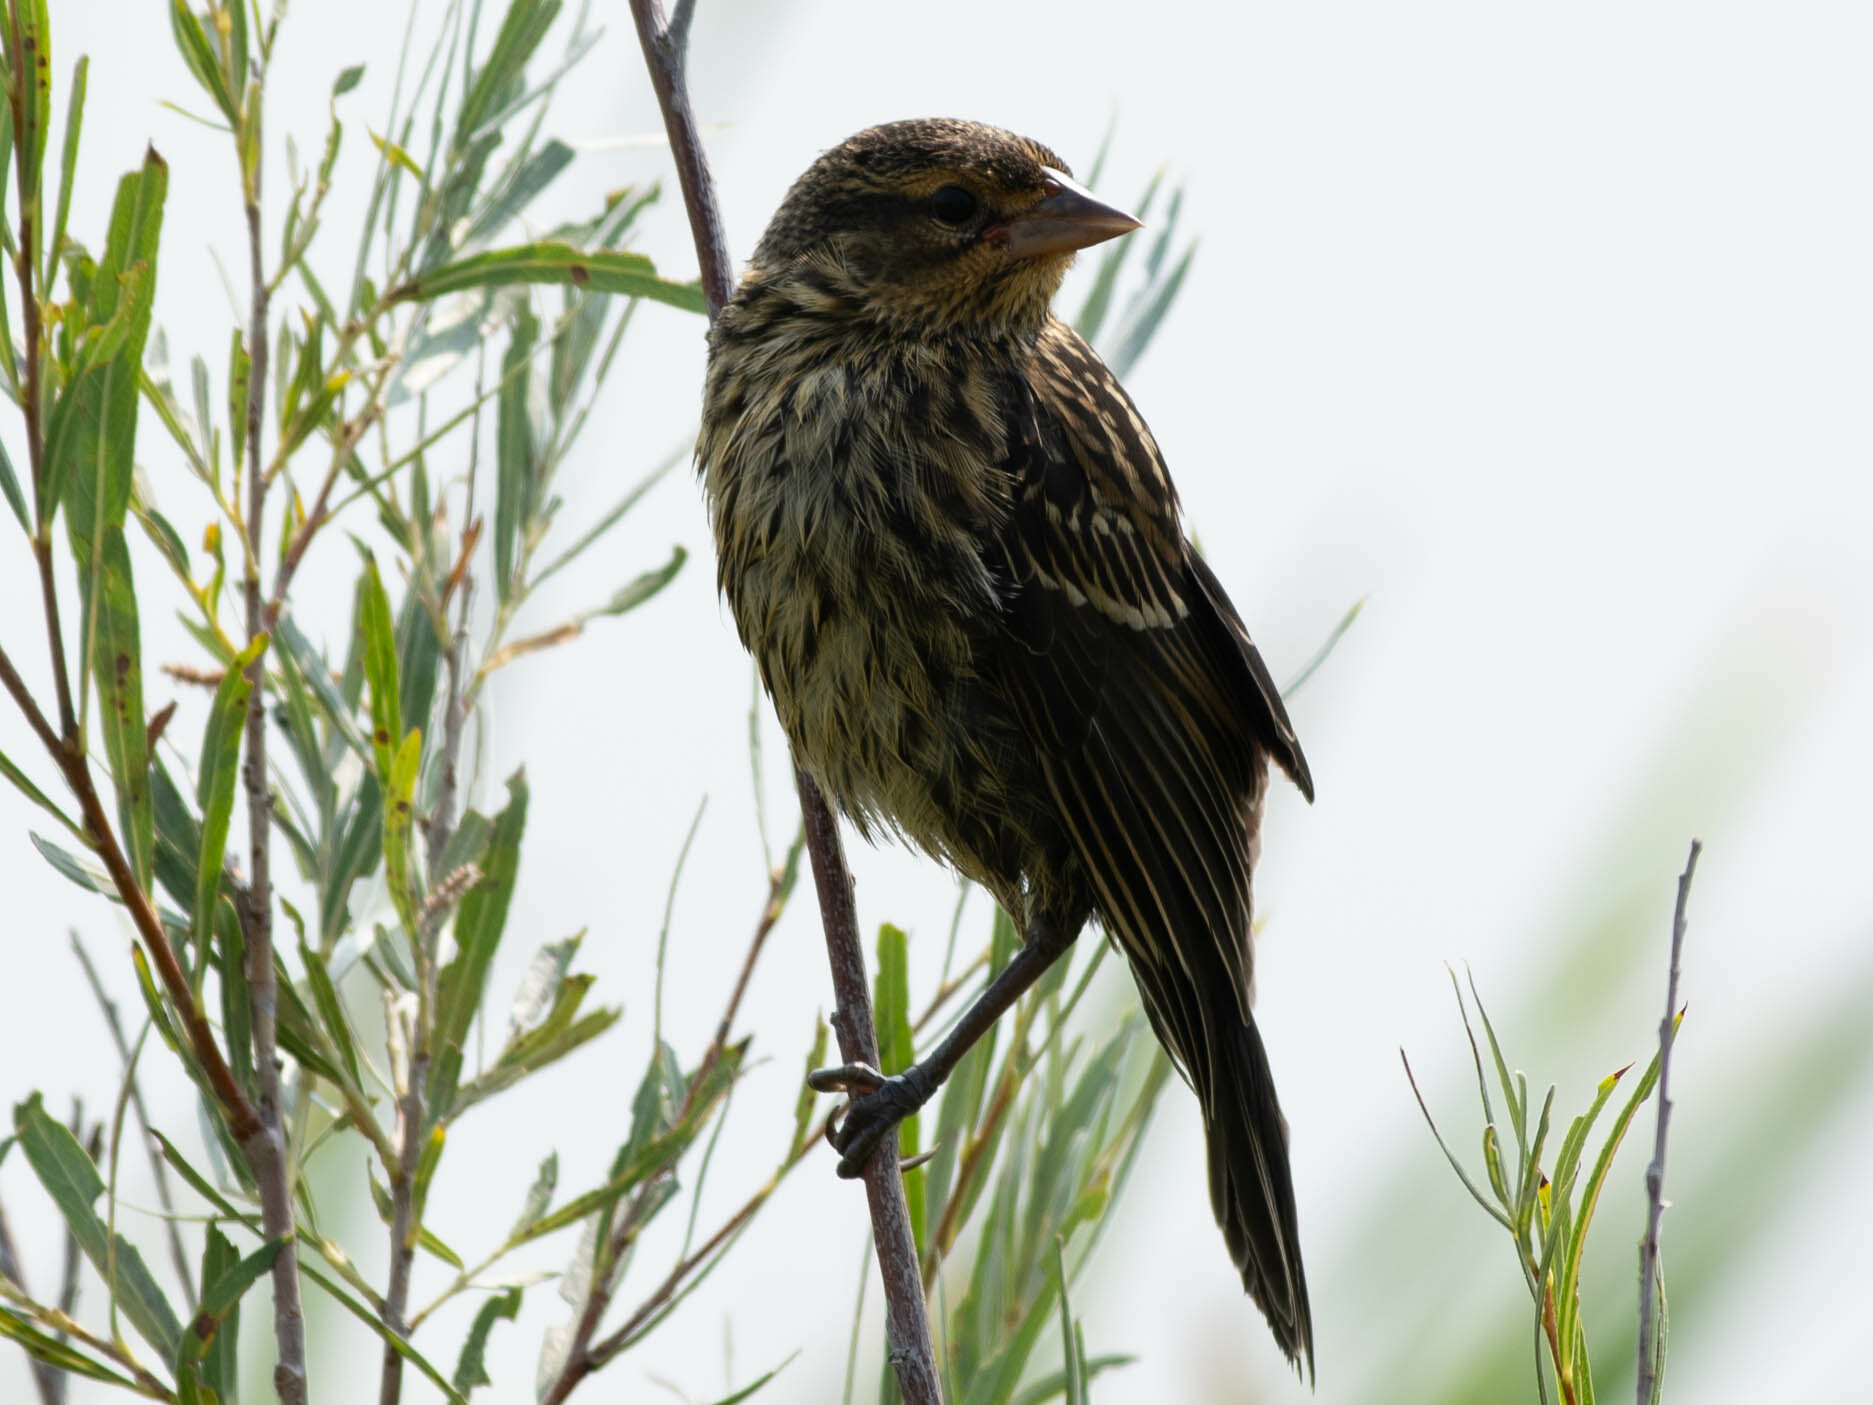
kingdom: Animalia
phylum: Chordata
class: Aves
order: Passeriformes
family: Icteridae
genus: Agelaius
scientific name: Agelaius phoeniceus
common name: Red-winged blackbird
